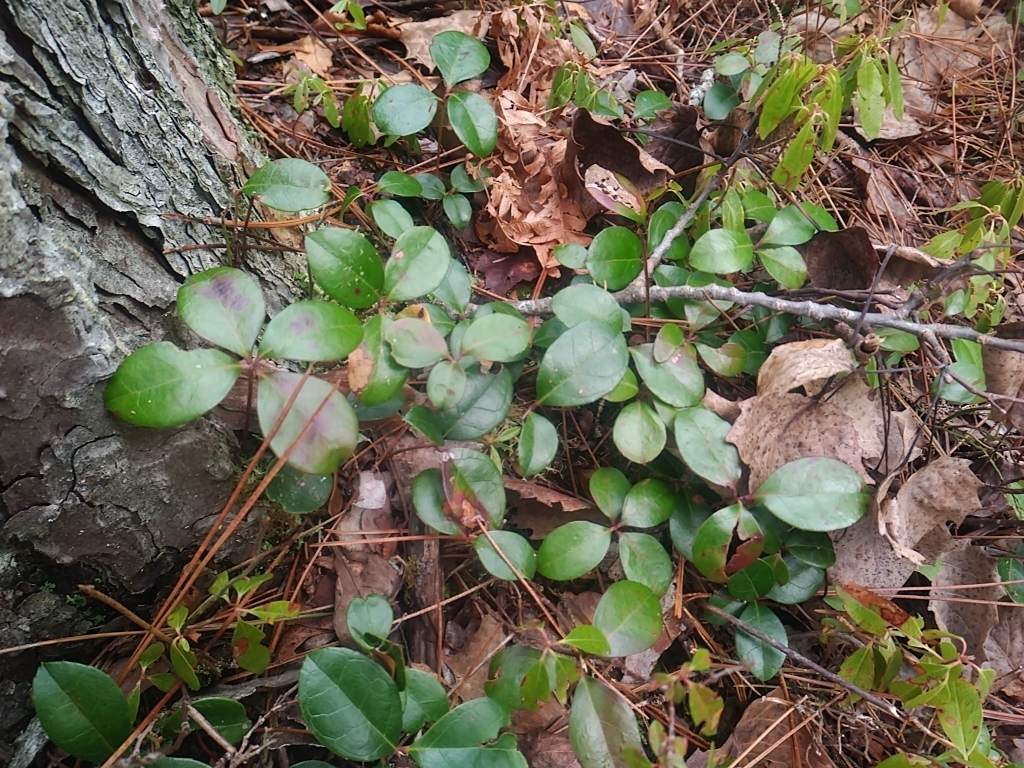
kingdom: Plantae
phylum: Tracheophyta
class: Magnoliopsida
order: Ericales
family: Ericaceae
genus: Gaultheria
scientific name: Gaultheria procumbens
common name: Checkerberry
